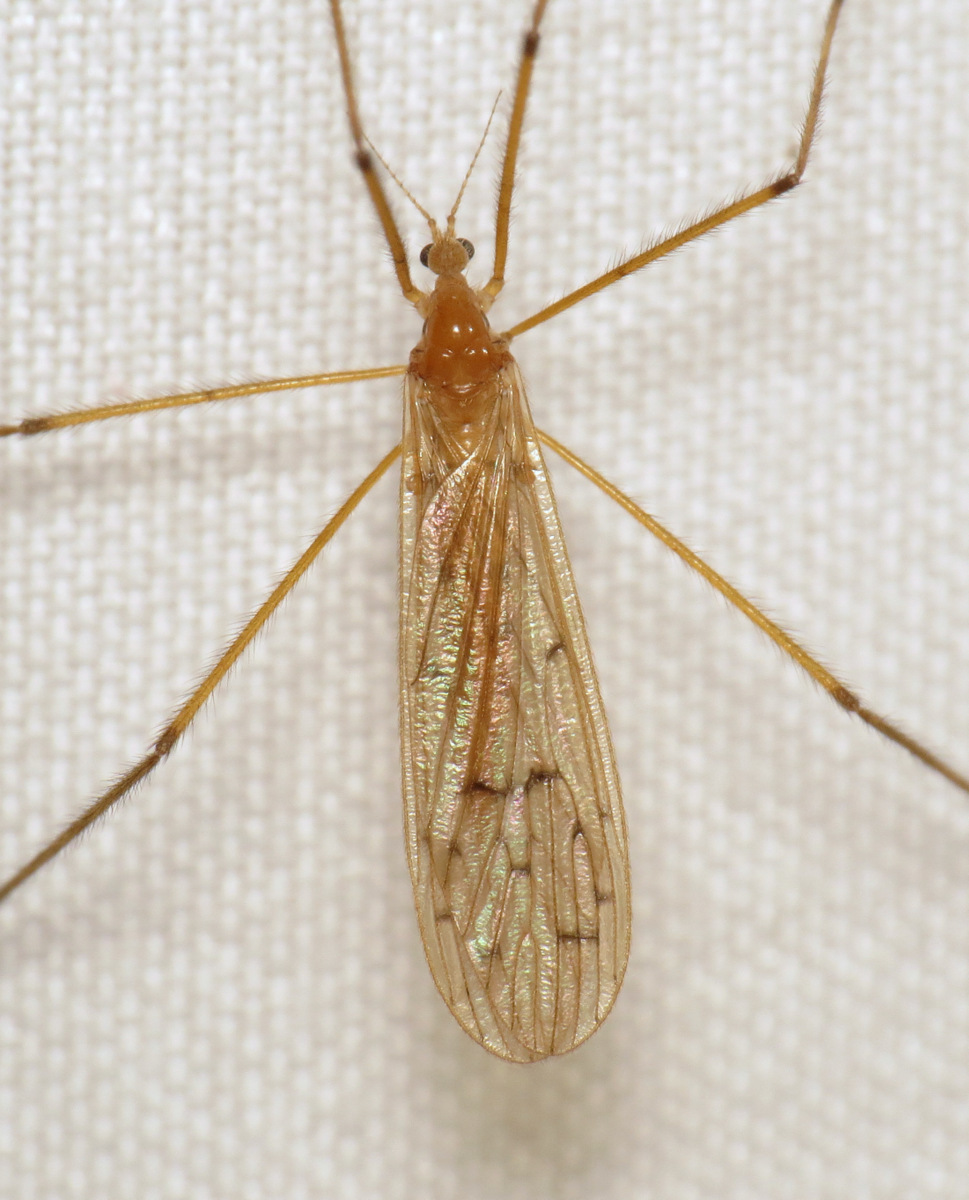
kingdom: Animalia
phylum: Arthropoda
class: Insecta
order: Diptera
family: Limoniidae
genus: Cladura
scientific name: Cladura flavoferruginea
